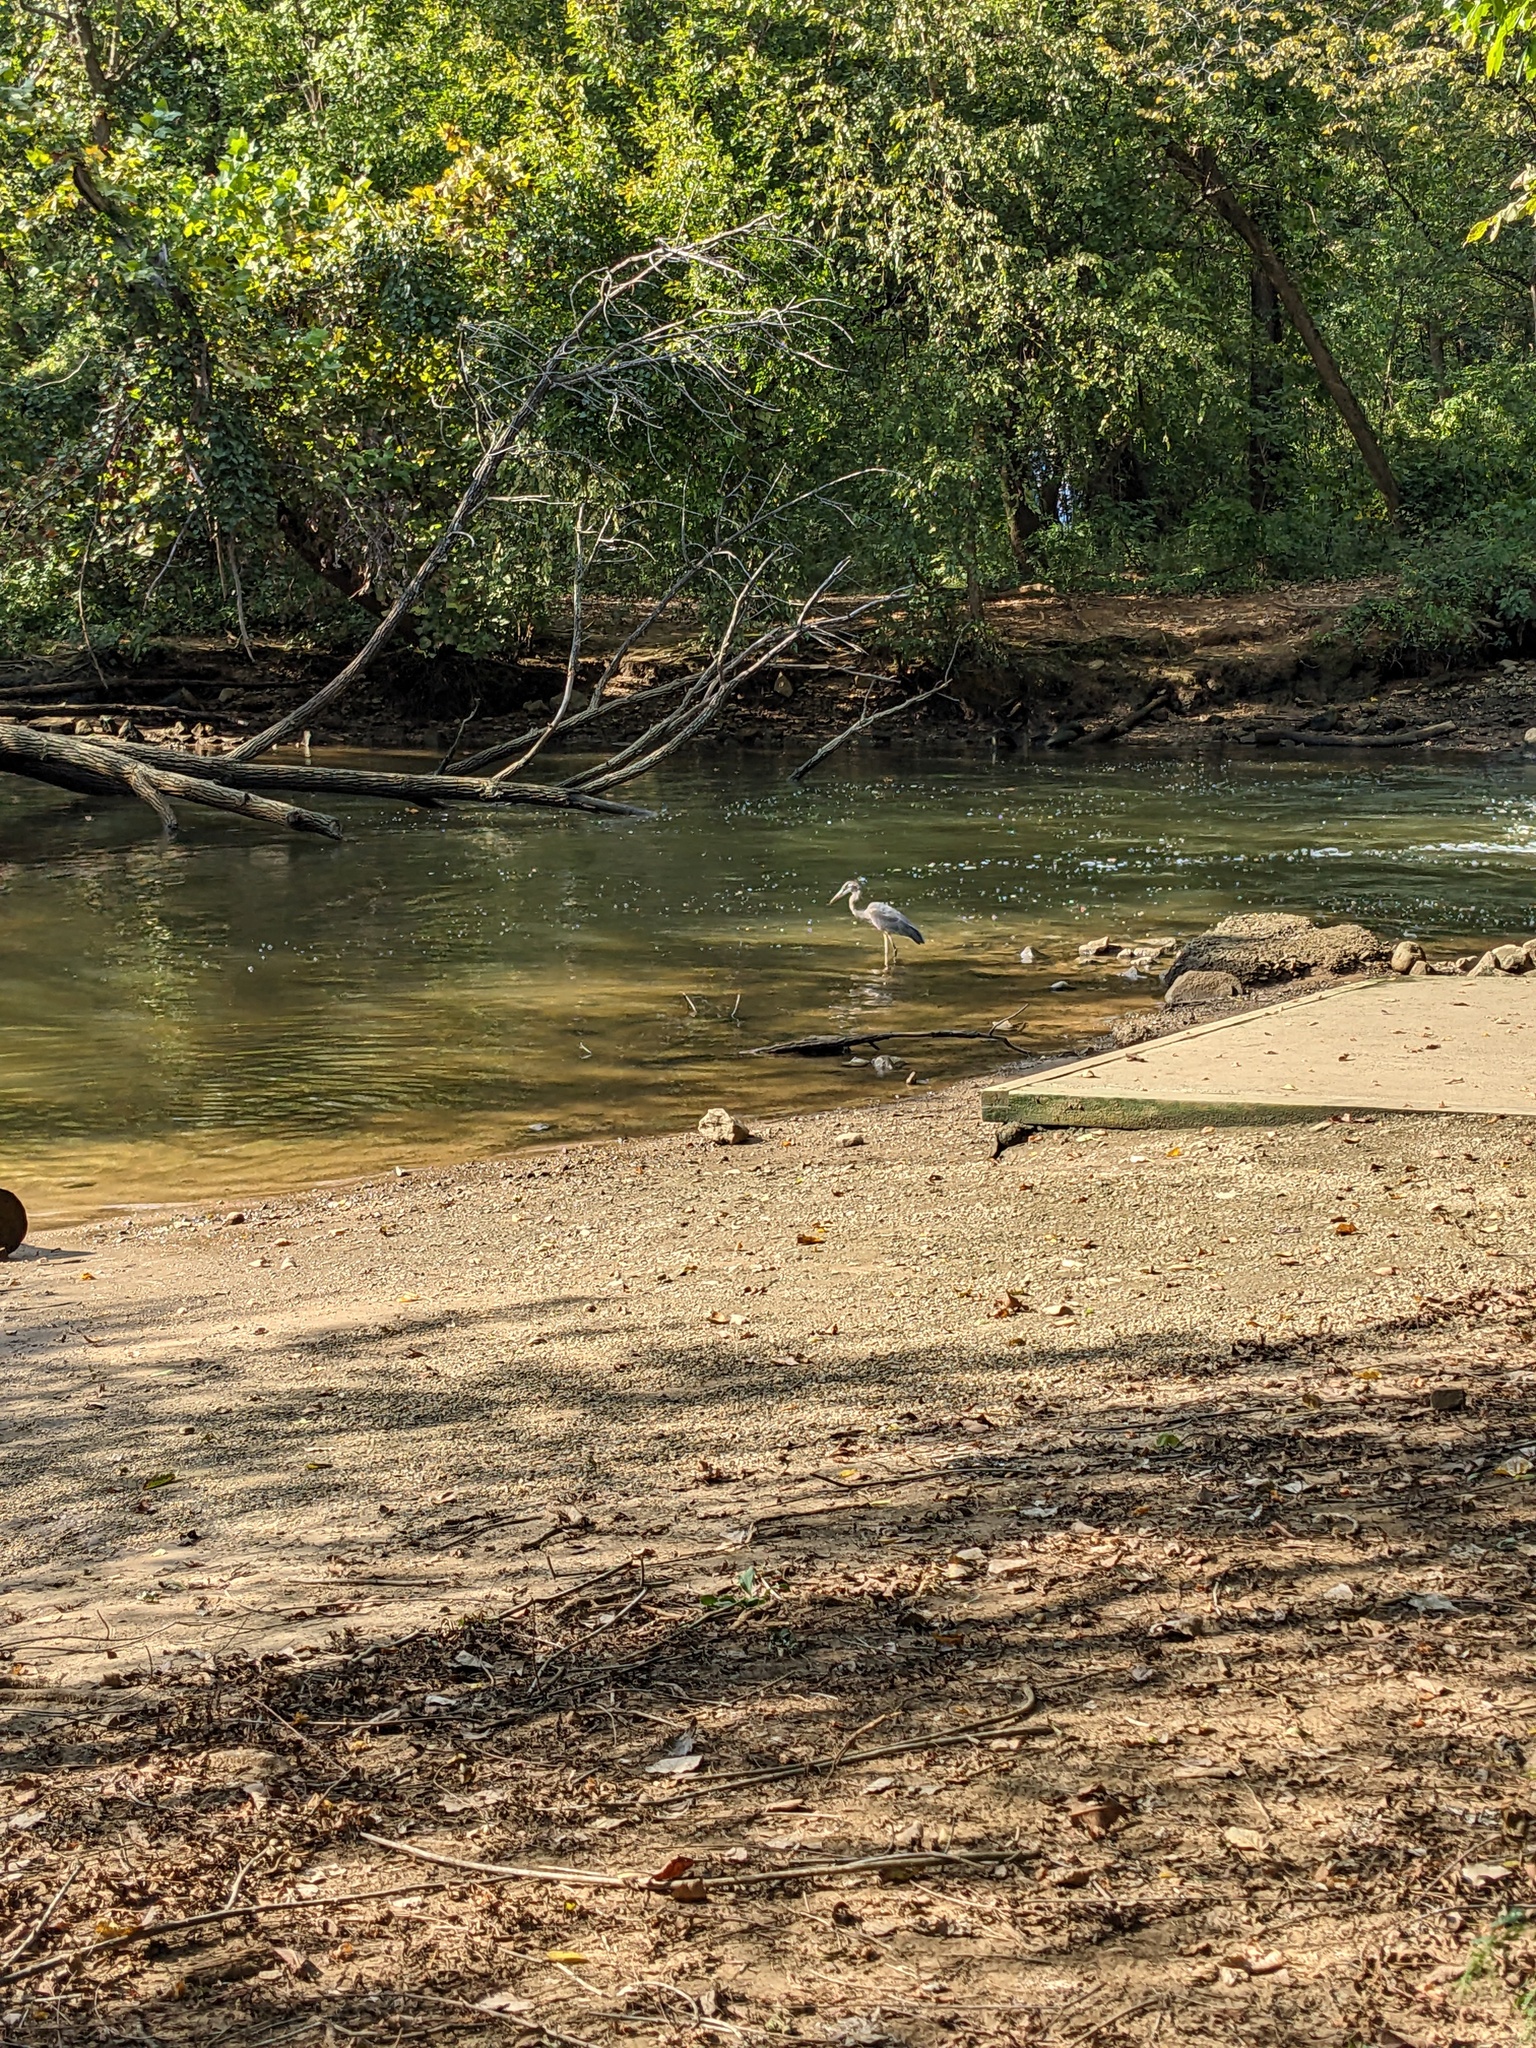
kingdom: Animalia
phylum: Chordata
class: Aves
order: Pelecaniformes
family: Ardeidae
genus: Ardea
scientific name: Ardea herodias
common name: Great blue heron
